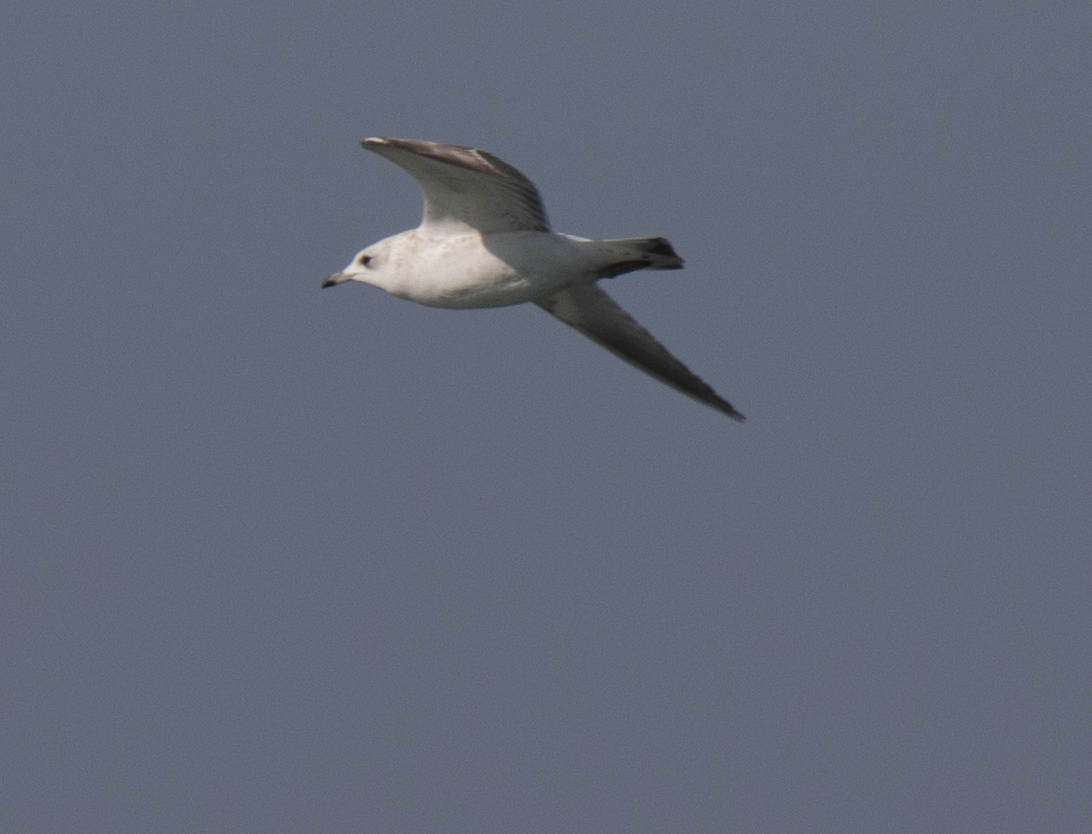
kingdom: Animalia
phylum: Chordata
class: Aves
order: Charadriiformes
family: Laridae
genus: Larus
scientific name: Larus canus
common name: Mew gull
